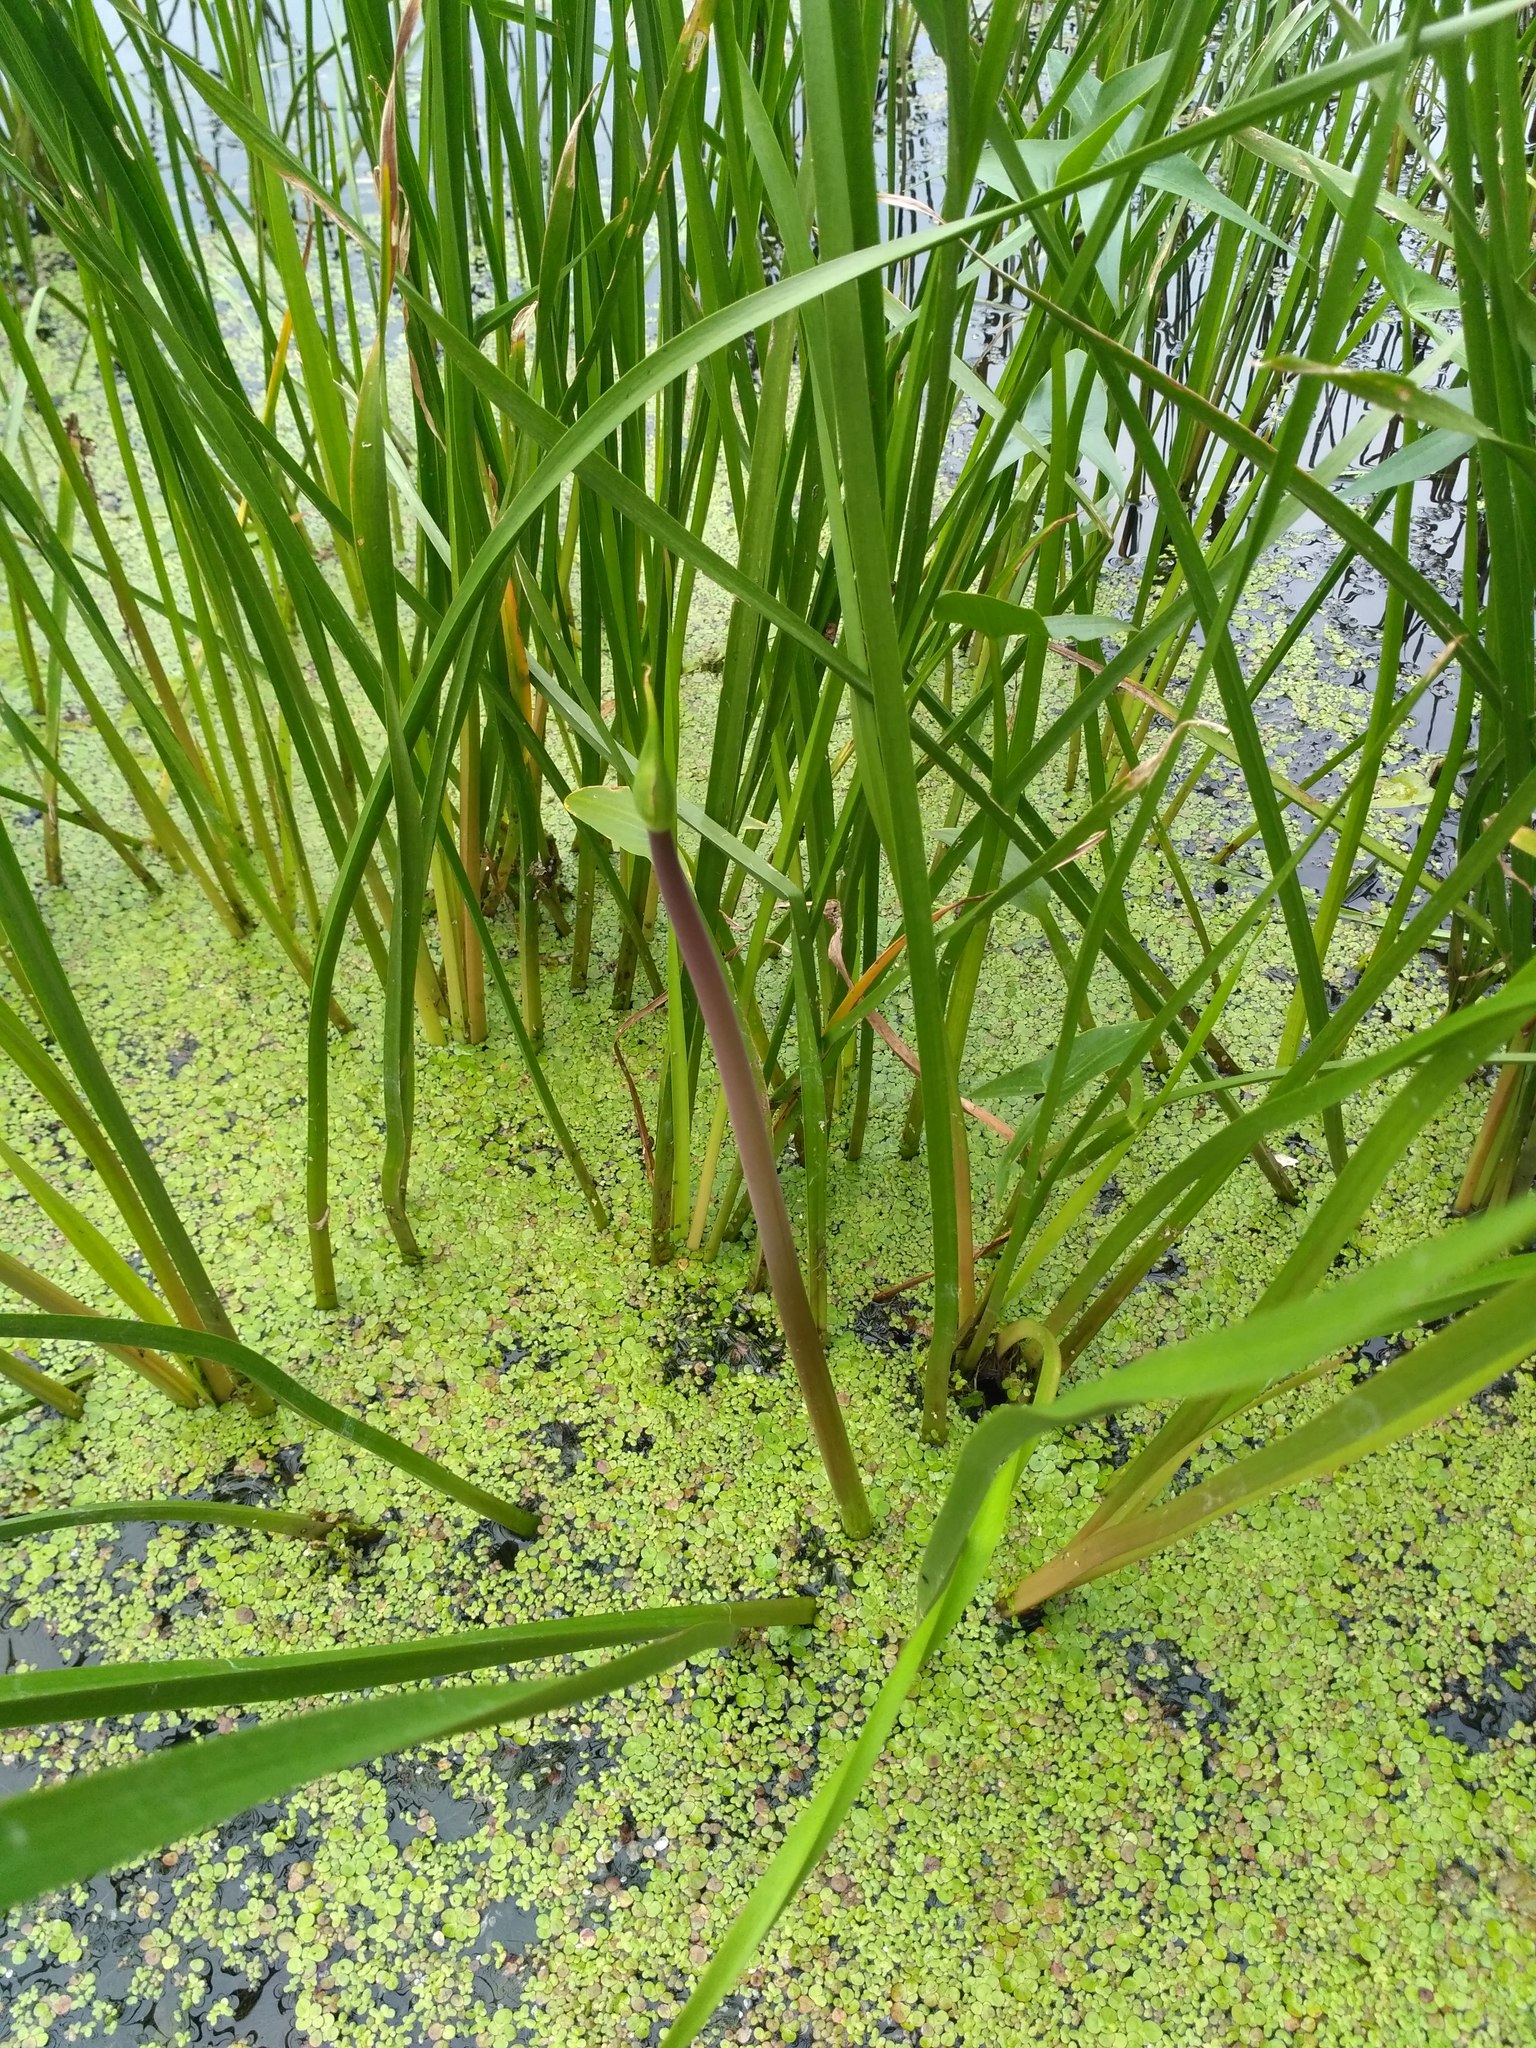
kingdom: Plantae
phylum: Tracheophyta
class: Liliopsida
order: Alismatales
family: Butomaceae
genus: Butomus
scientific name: Butomus umbellatus
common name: Flowering-rush
